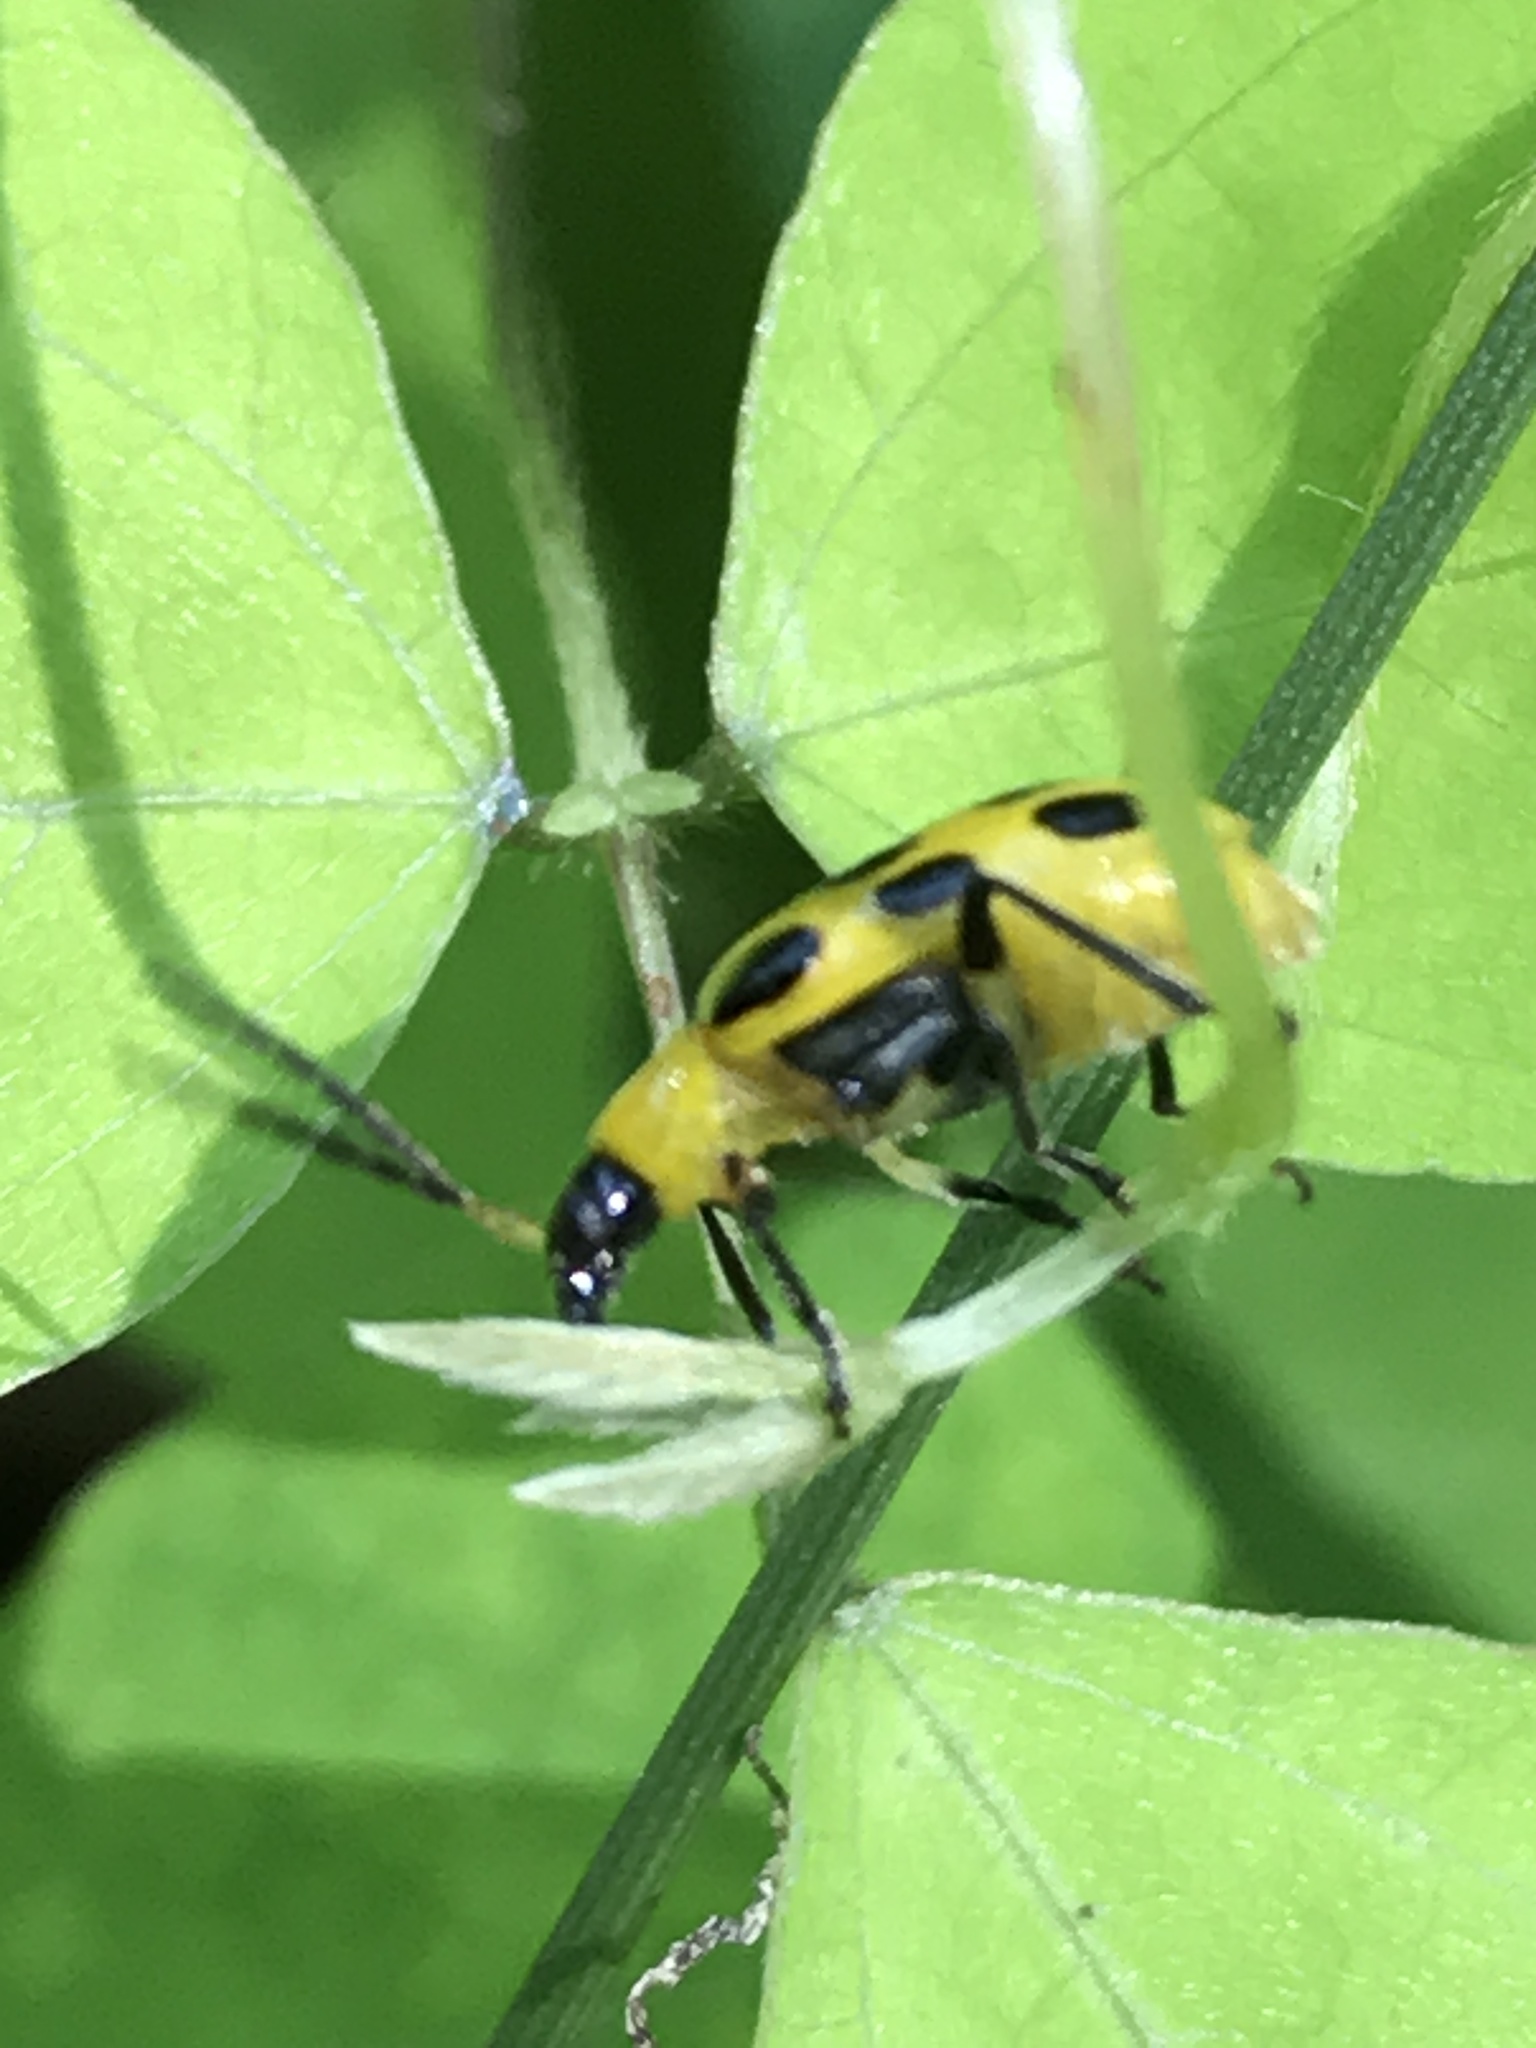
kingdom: Animalia
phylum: Arthropoda
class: Insecta
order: Coleoptera
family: Chrysomelidae
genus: Diabrotica
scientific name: Diabrotica undecimpunctata
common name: Spotted cucumber beetle
